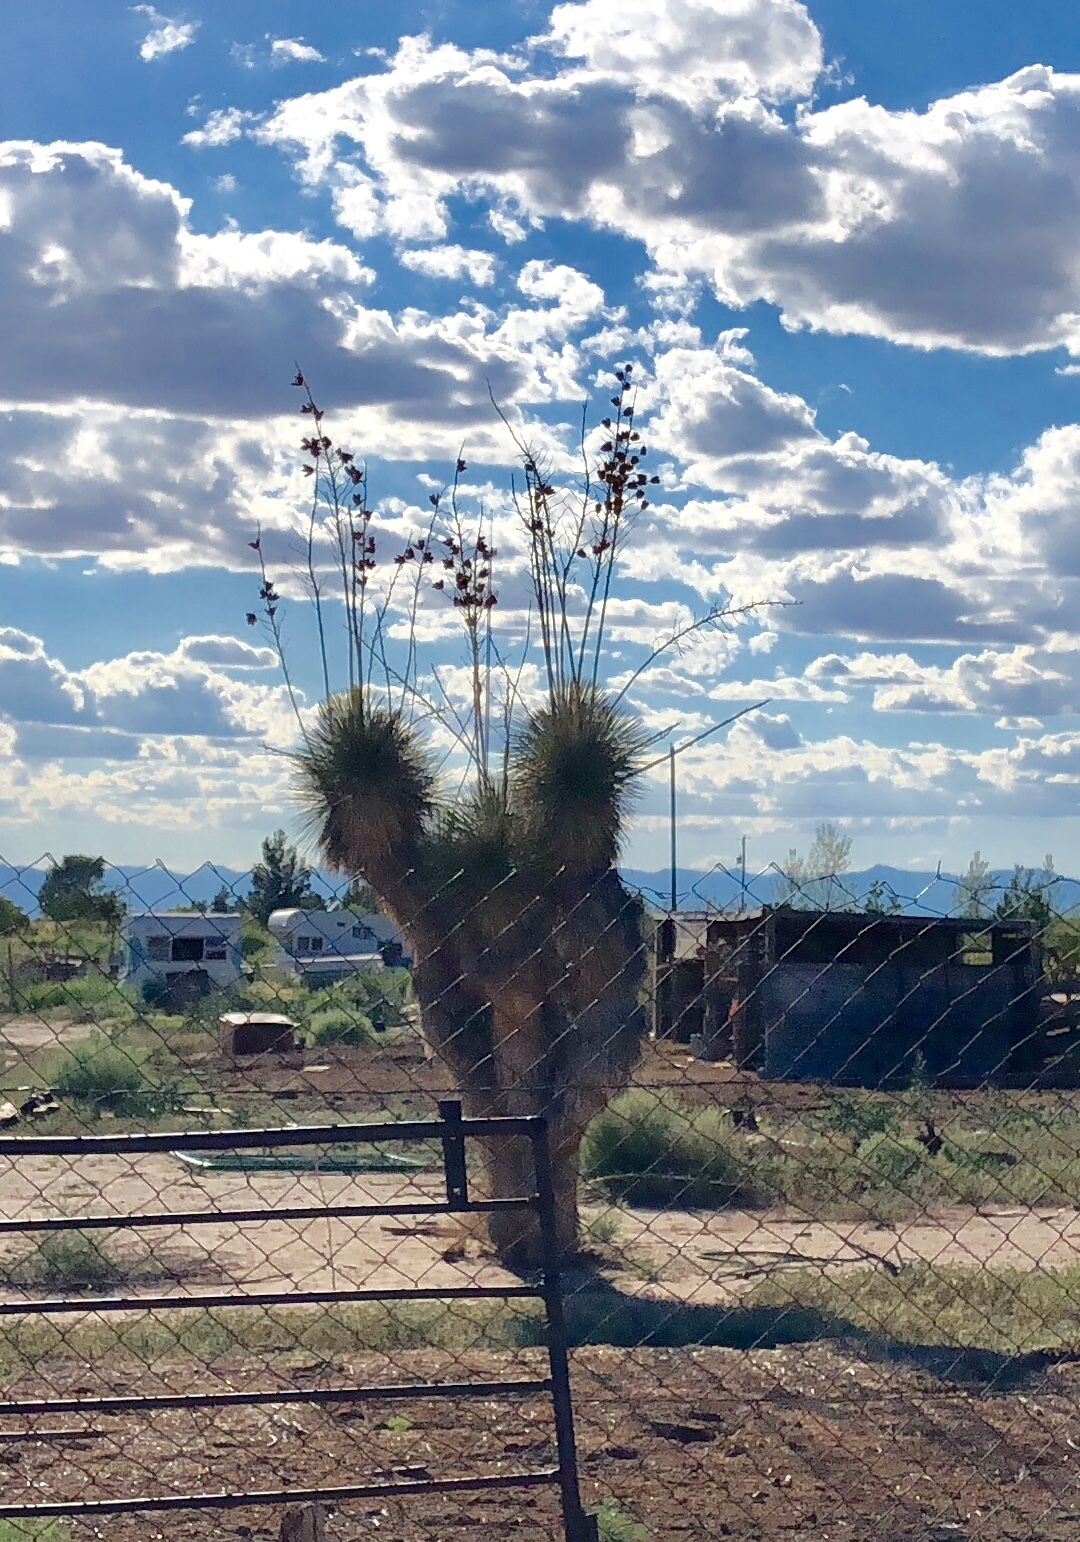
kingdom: Plantae
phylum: Tracheophyta
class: Liliopsida
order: Asparagales
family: Asparagaceae
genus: Yucca
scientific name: Yucca elata
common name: Palmella
